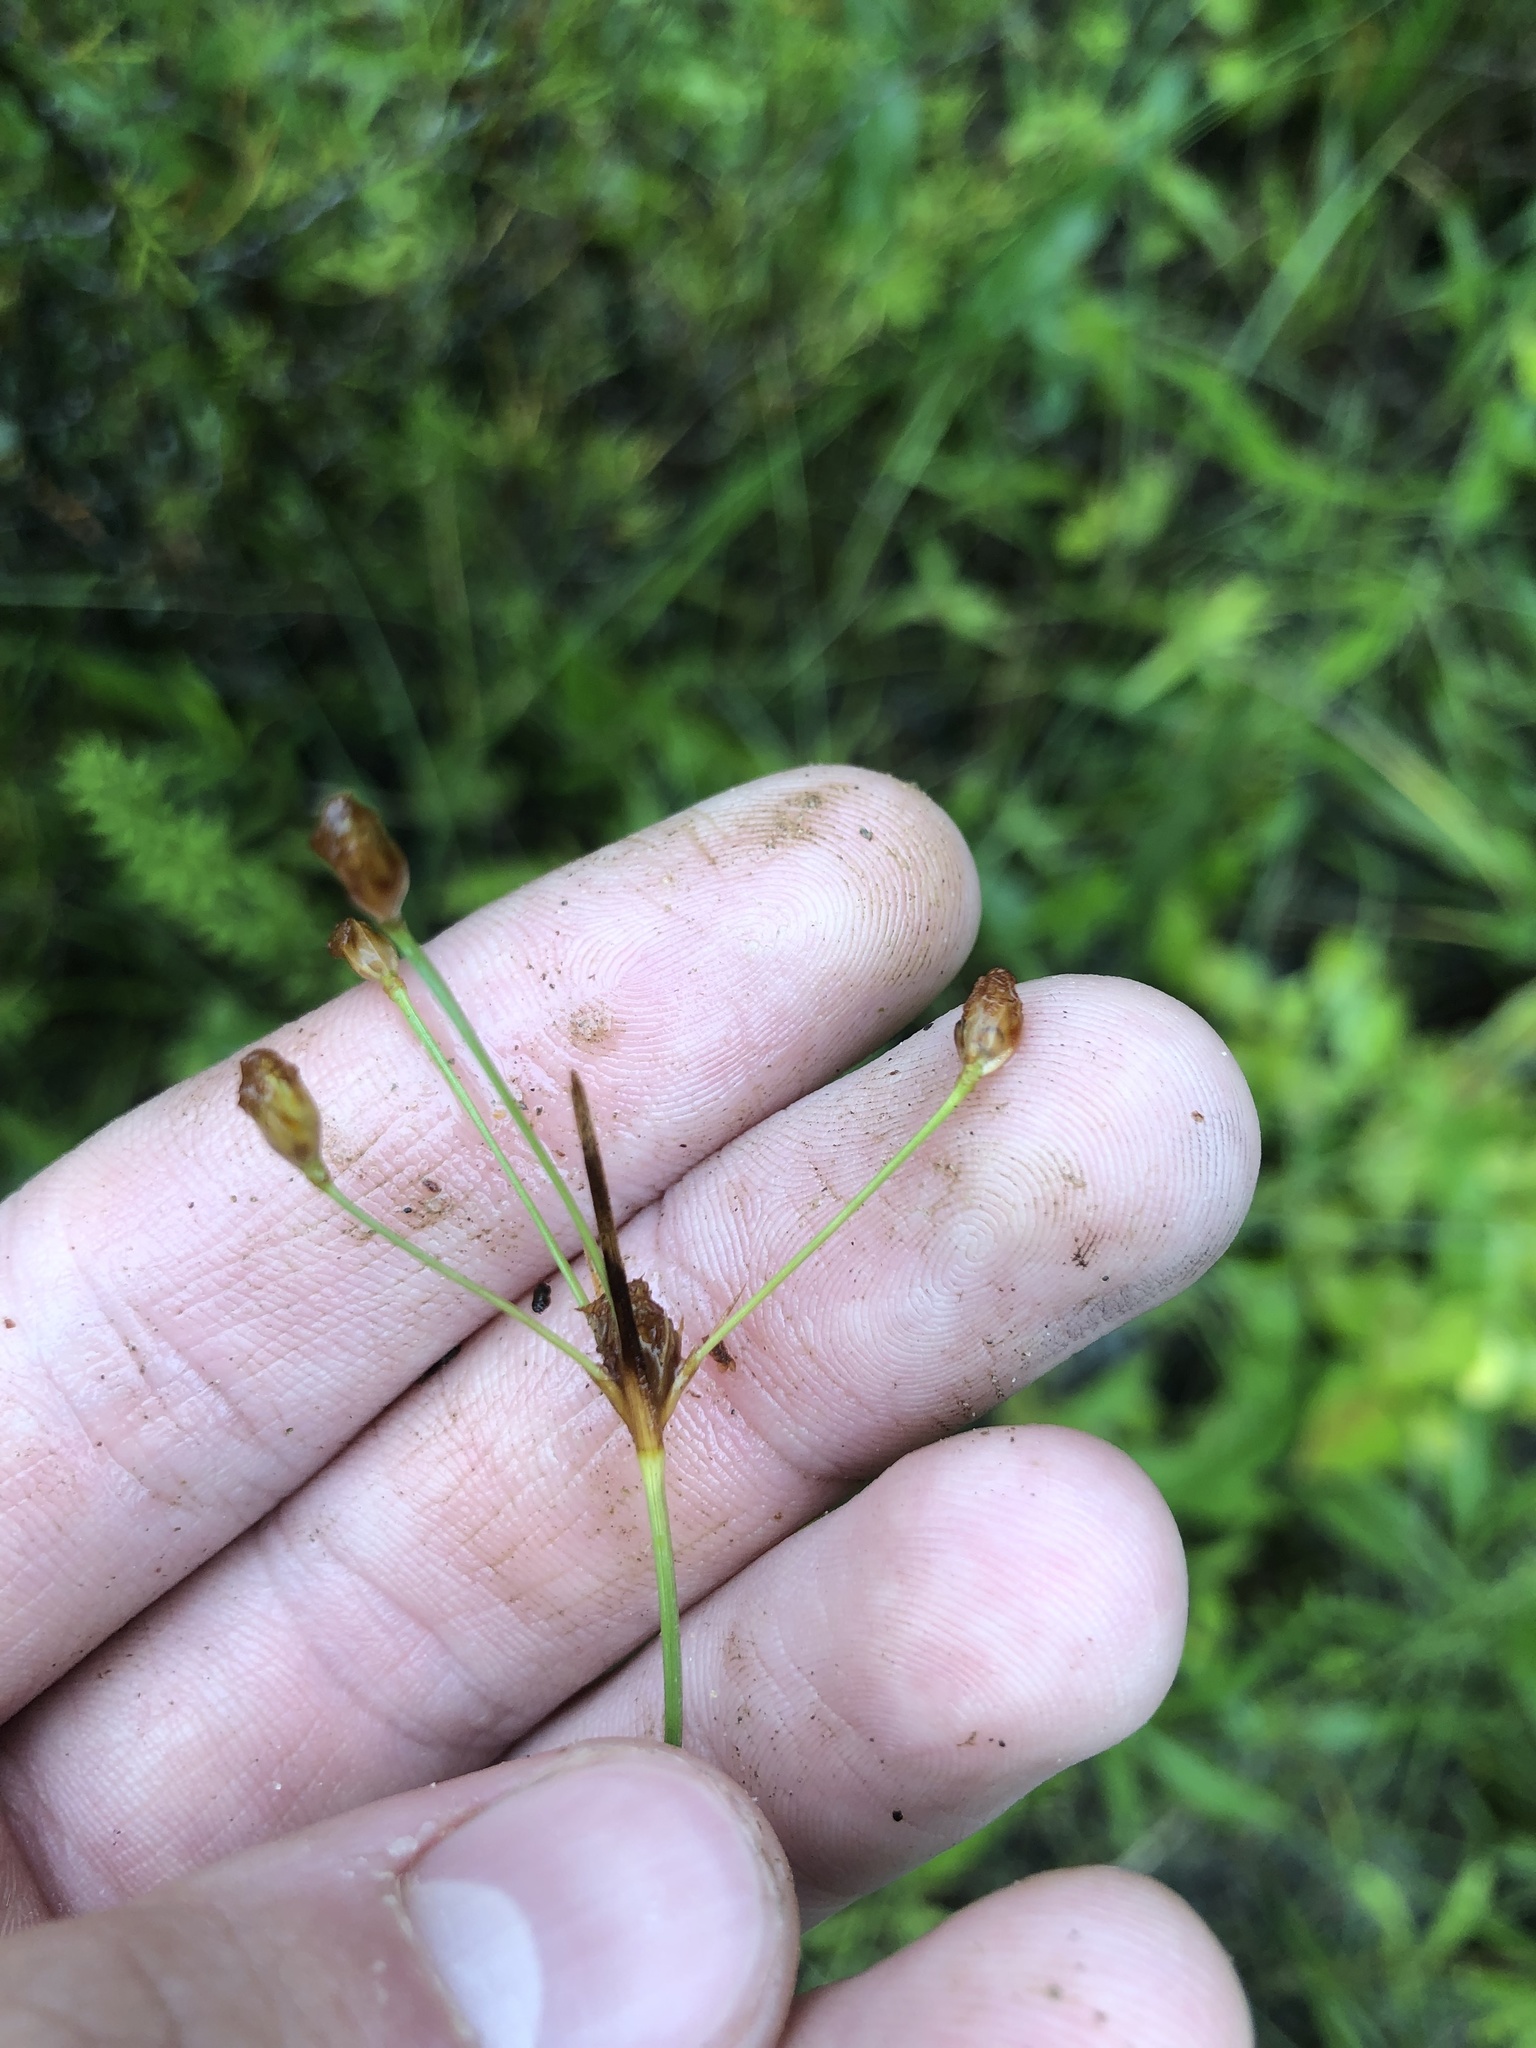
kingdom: Plantae
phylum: Tracheophyta
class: Liliopsida
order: Poales
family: Cyperaceae
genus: Fimbristylis
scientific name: Fimbristylis puberula
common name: Hairy fimbristylis
